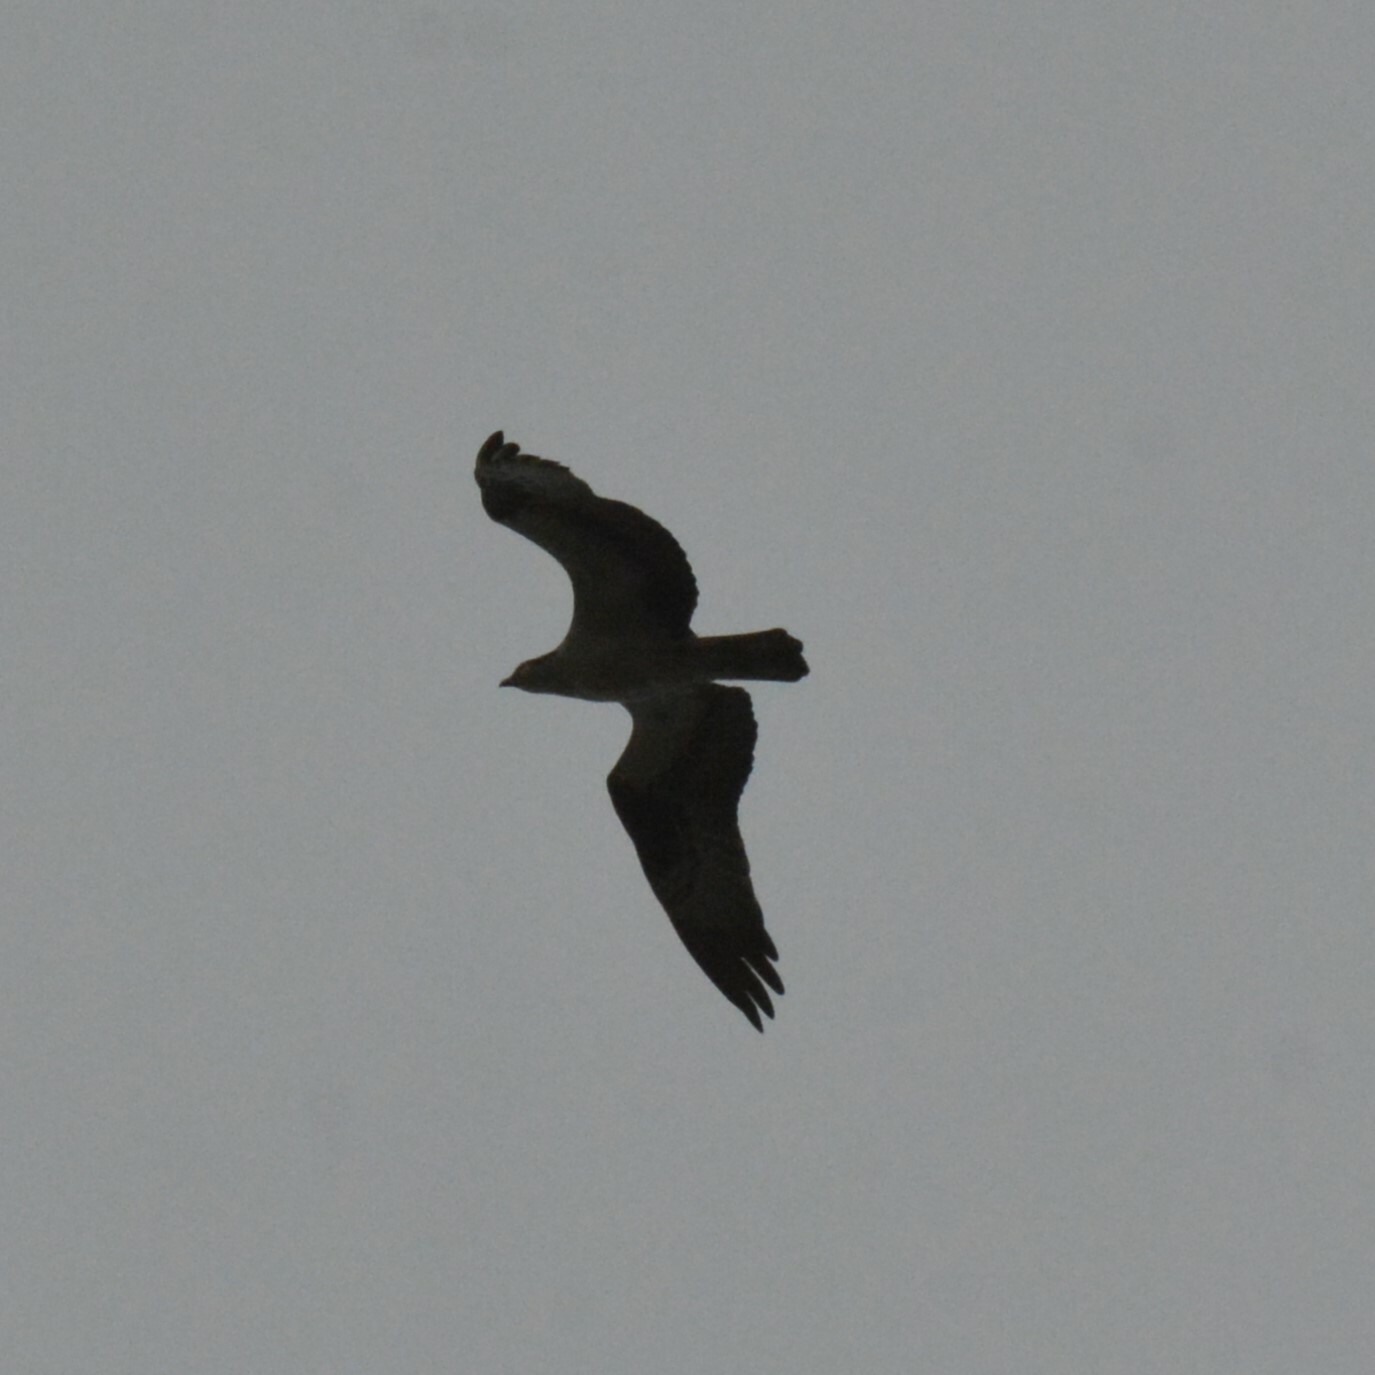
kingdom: Animalia
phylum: Chordata
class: Aves
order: Accipitriformes
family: Pandionidae
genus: Pandion
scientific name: Pandion haliaetus
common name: Osprey
